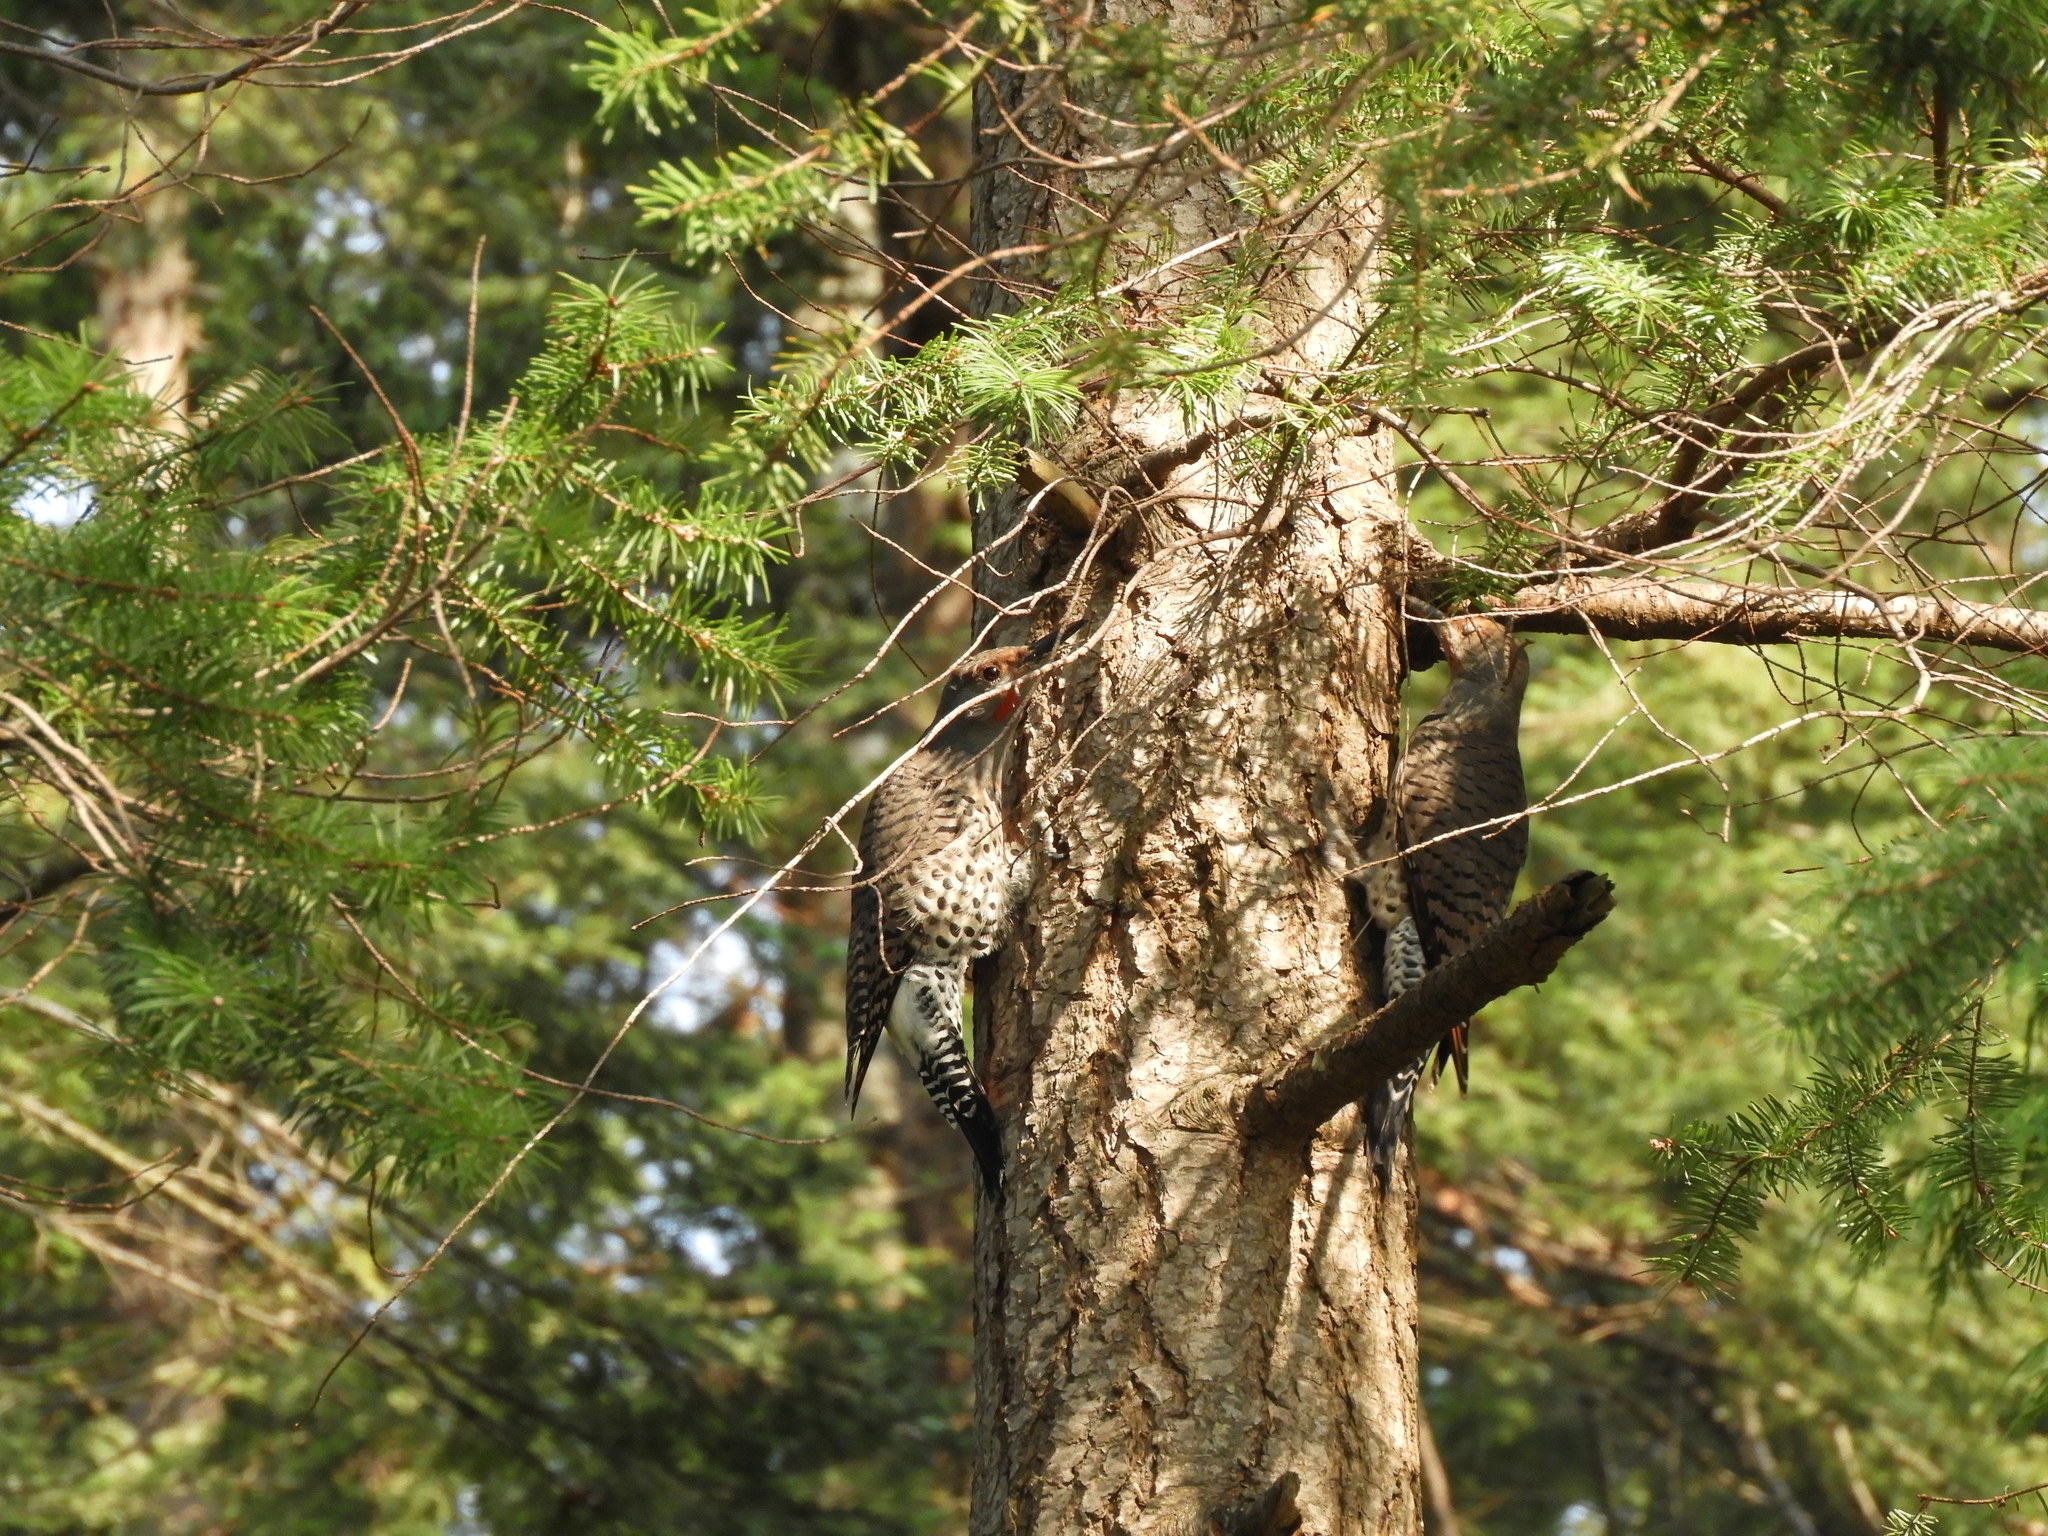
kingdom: Animalia
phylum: Chordata
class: Aves
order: Piciformes
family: Picidae
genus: Colaptes
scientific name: Colaptes auratus
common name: Northern flicker
